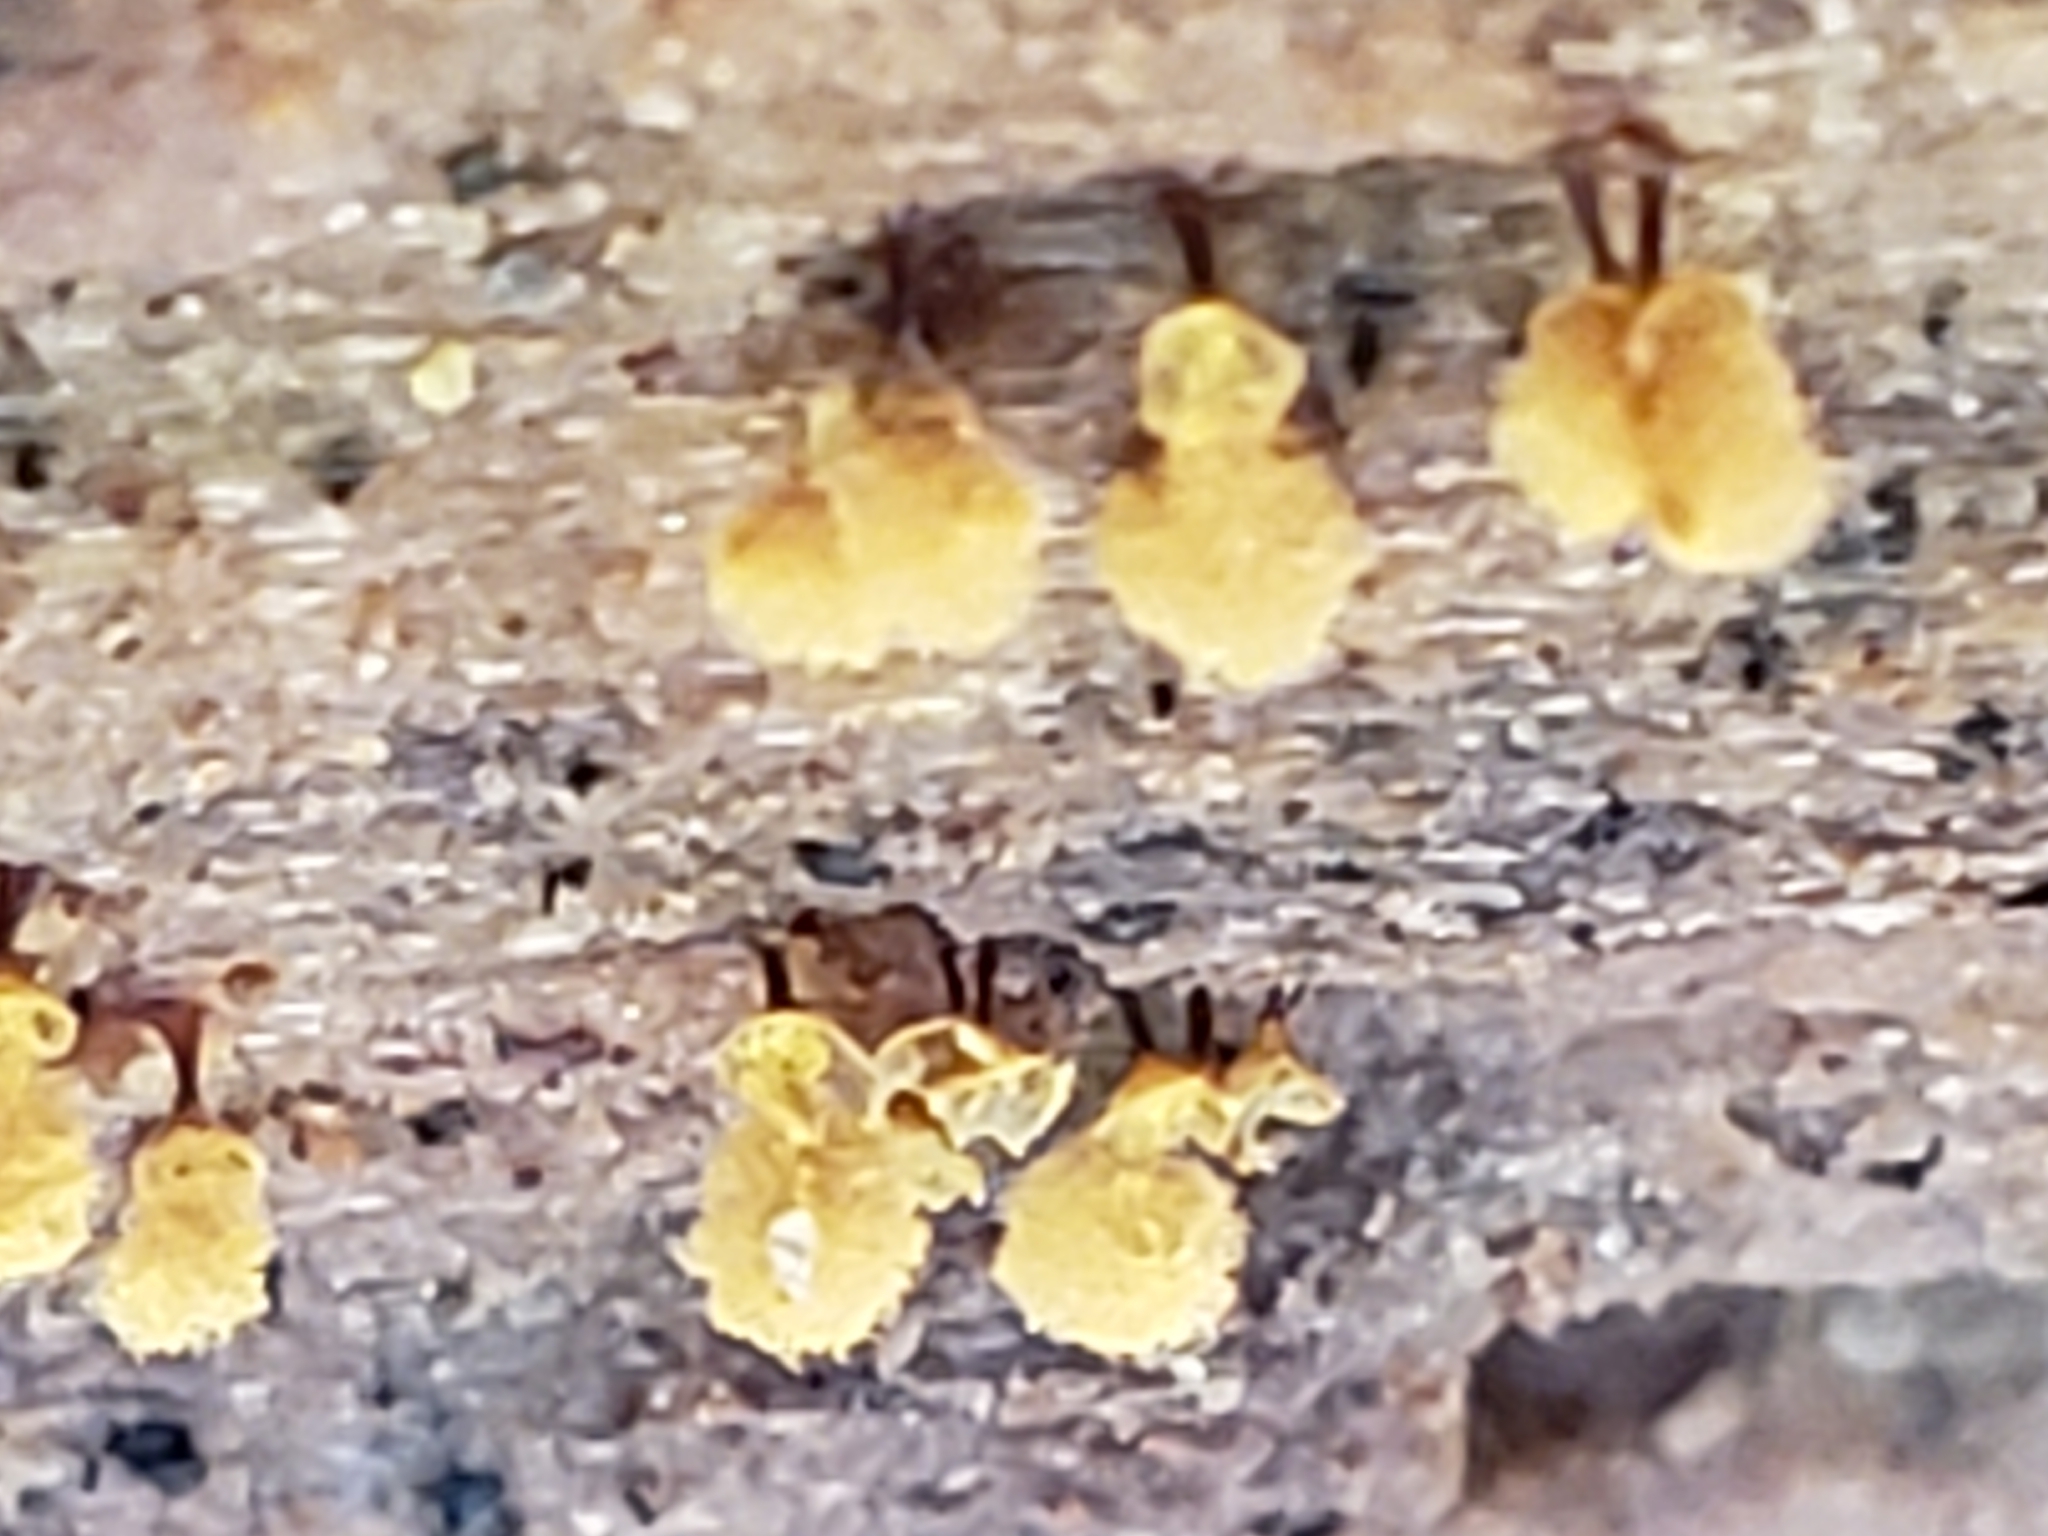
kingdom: Protozoa
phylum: Mycetozoa
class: Myxomycetes
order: Trichiales
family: Arcyriaceae
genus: Hemitrichia
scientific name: Hemitrichia calyculata
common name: Push pin slime mold
